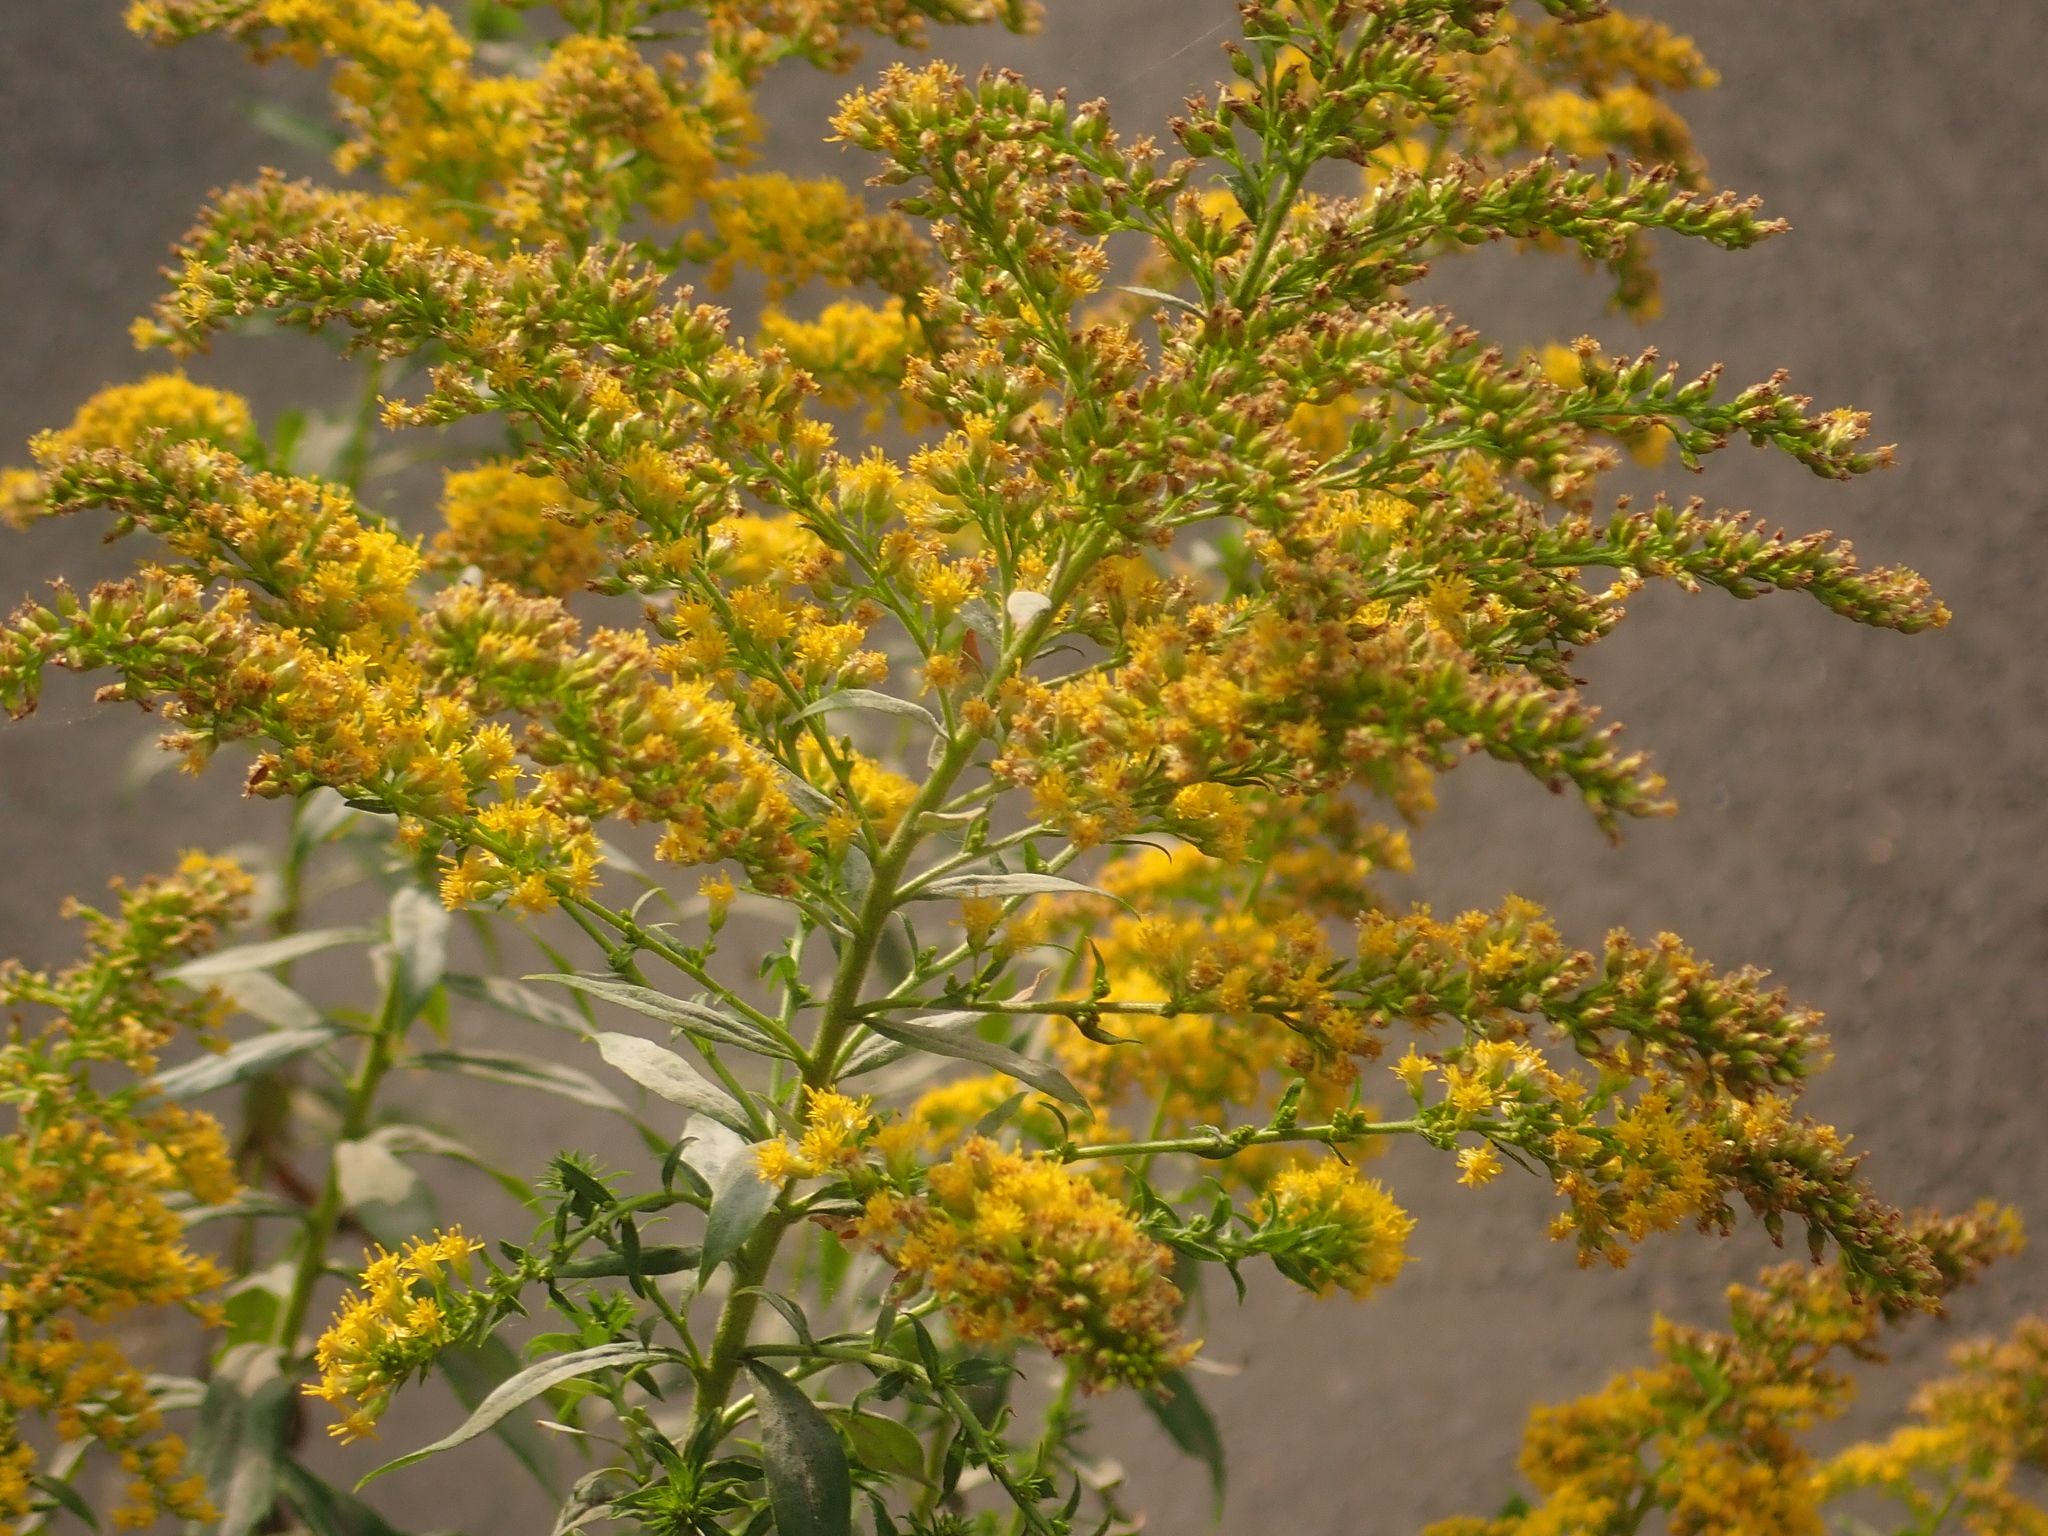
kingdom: Plantae
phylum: Tracheophyta
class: Magnoliopsida
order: Asterales
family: Asteraceae
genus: Solidago
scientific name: Solidago canadensis
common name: Canada goldenrod
